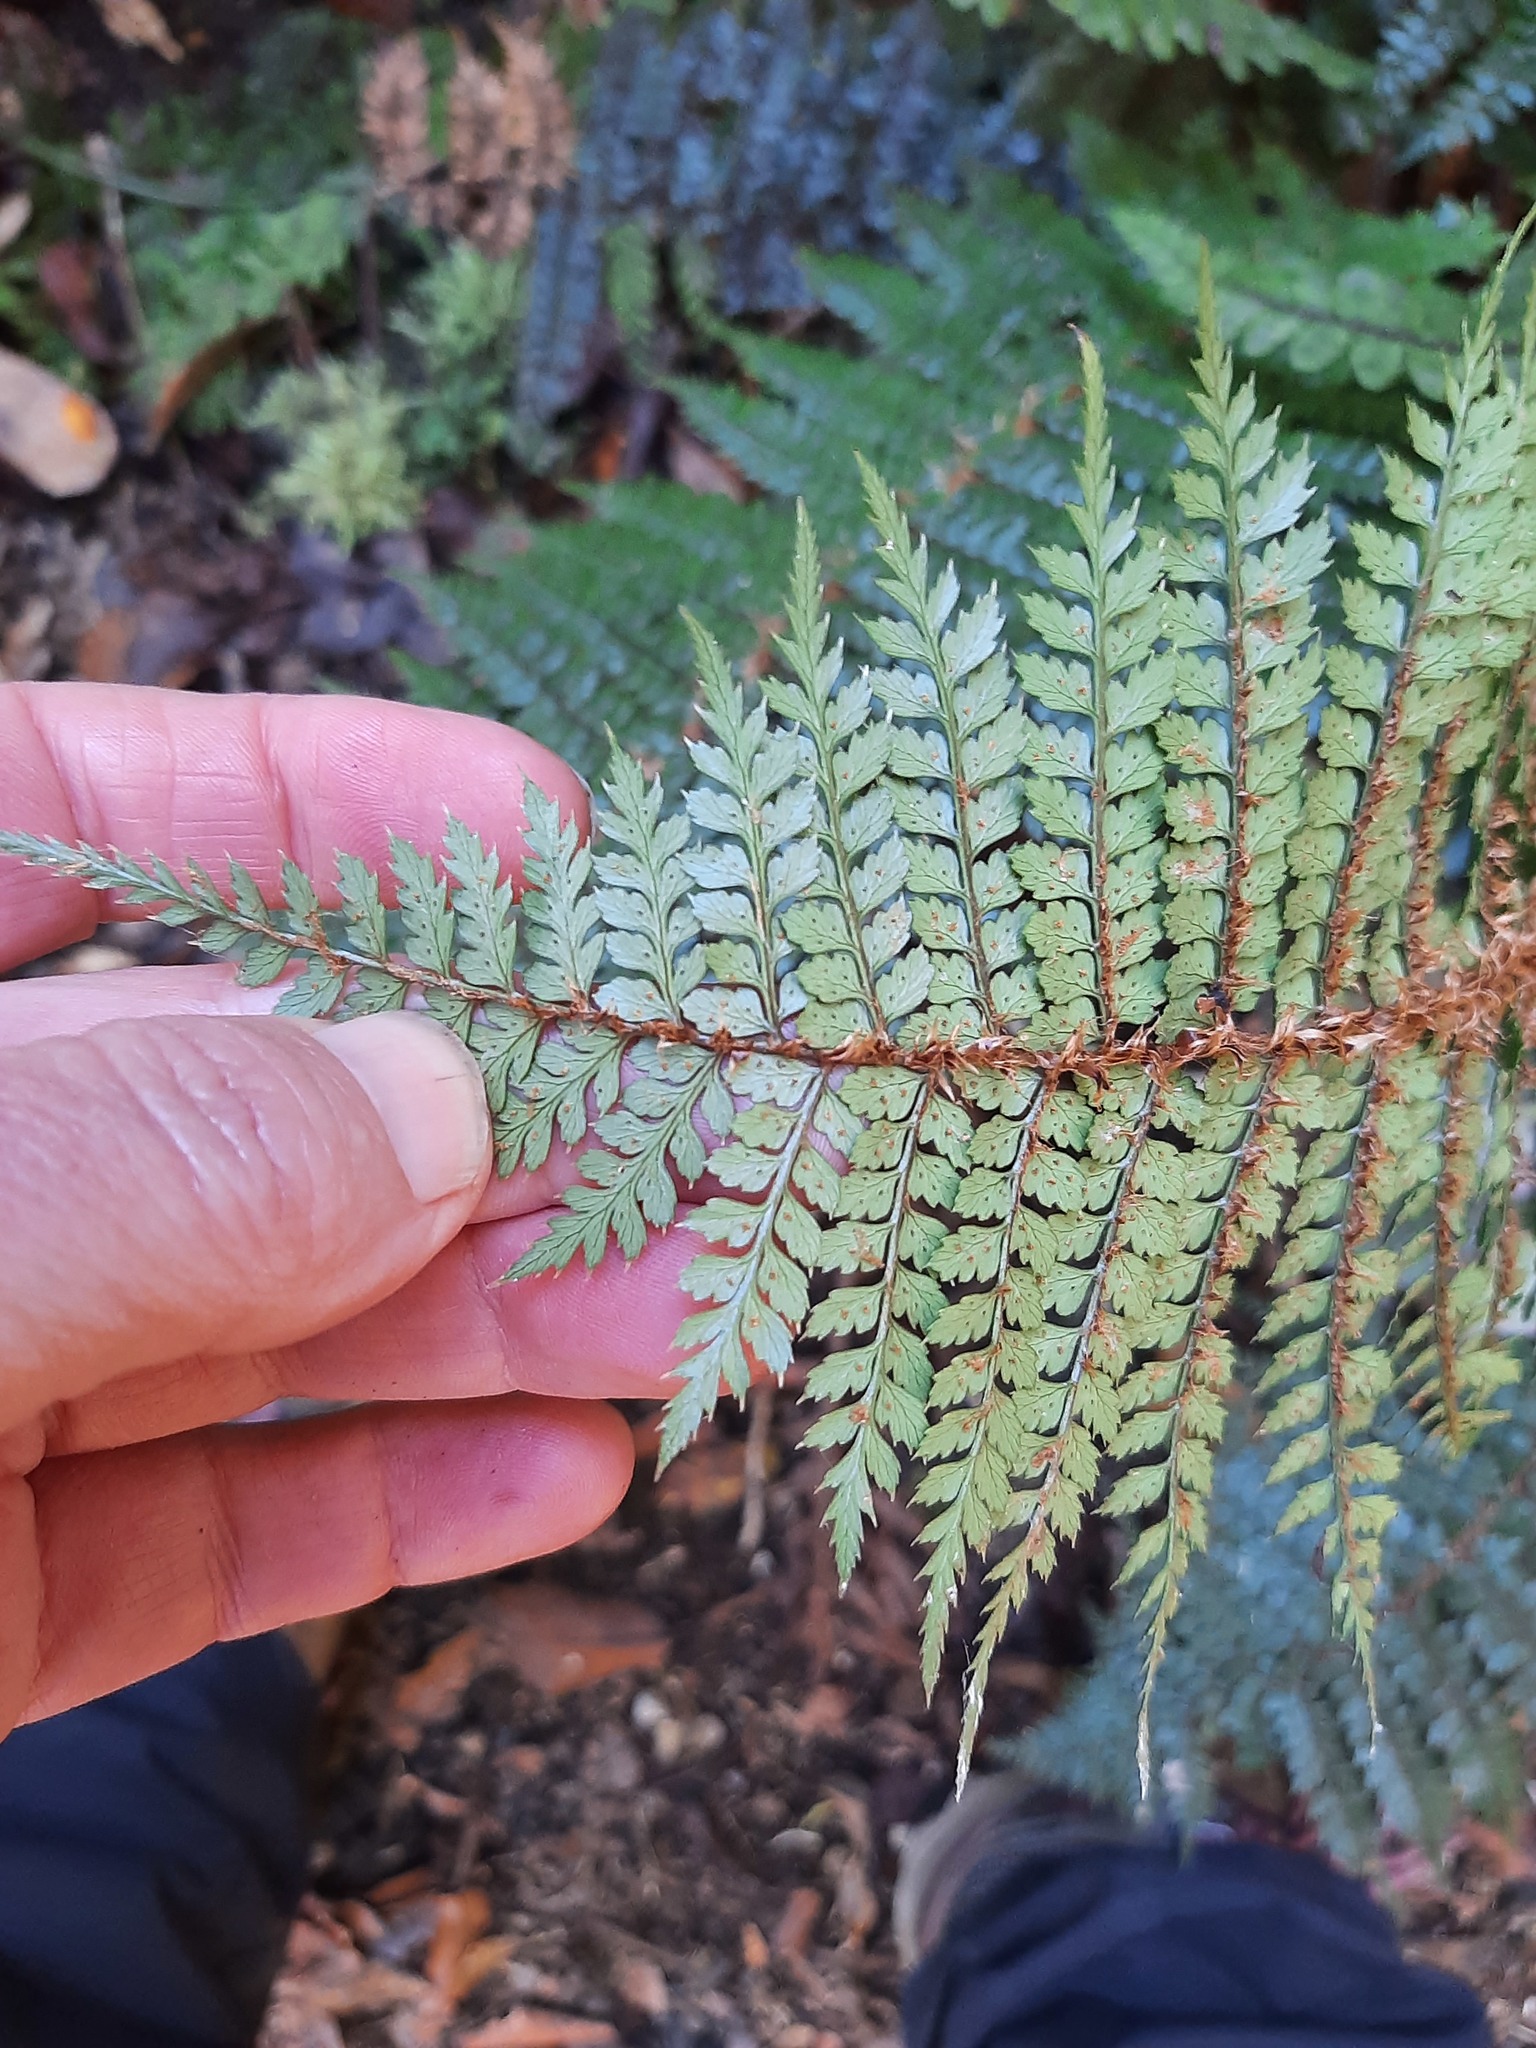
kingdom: Plantae
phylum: Tracheophyta
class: Polypodiopsida
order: Polypodiales
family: Dryopteridaceae
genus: Polystichum
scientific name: Polystichum vestitum
